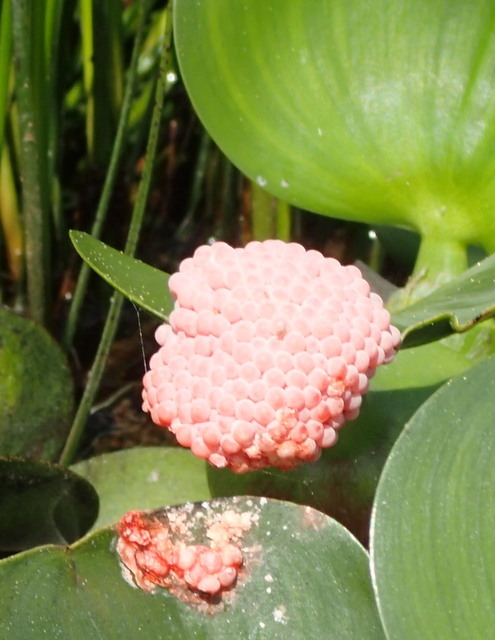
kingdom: Animalia
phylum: Mollusca
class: Gastropoda
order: Architaenioglossa
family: Ampullariidae
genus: Pomacea
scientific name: Pomacea maculata
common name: Giant applesnail
